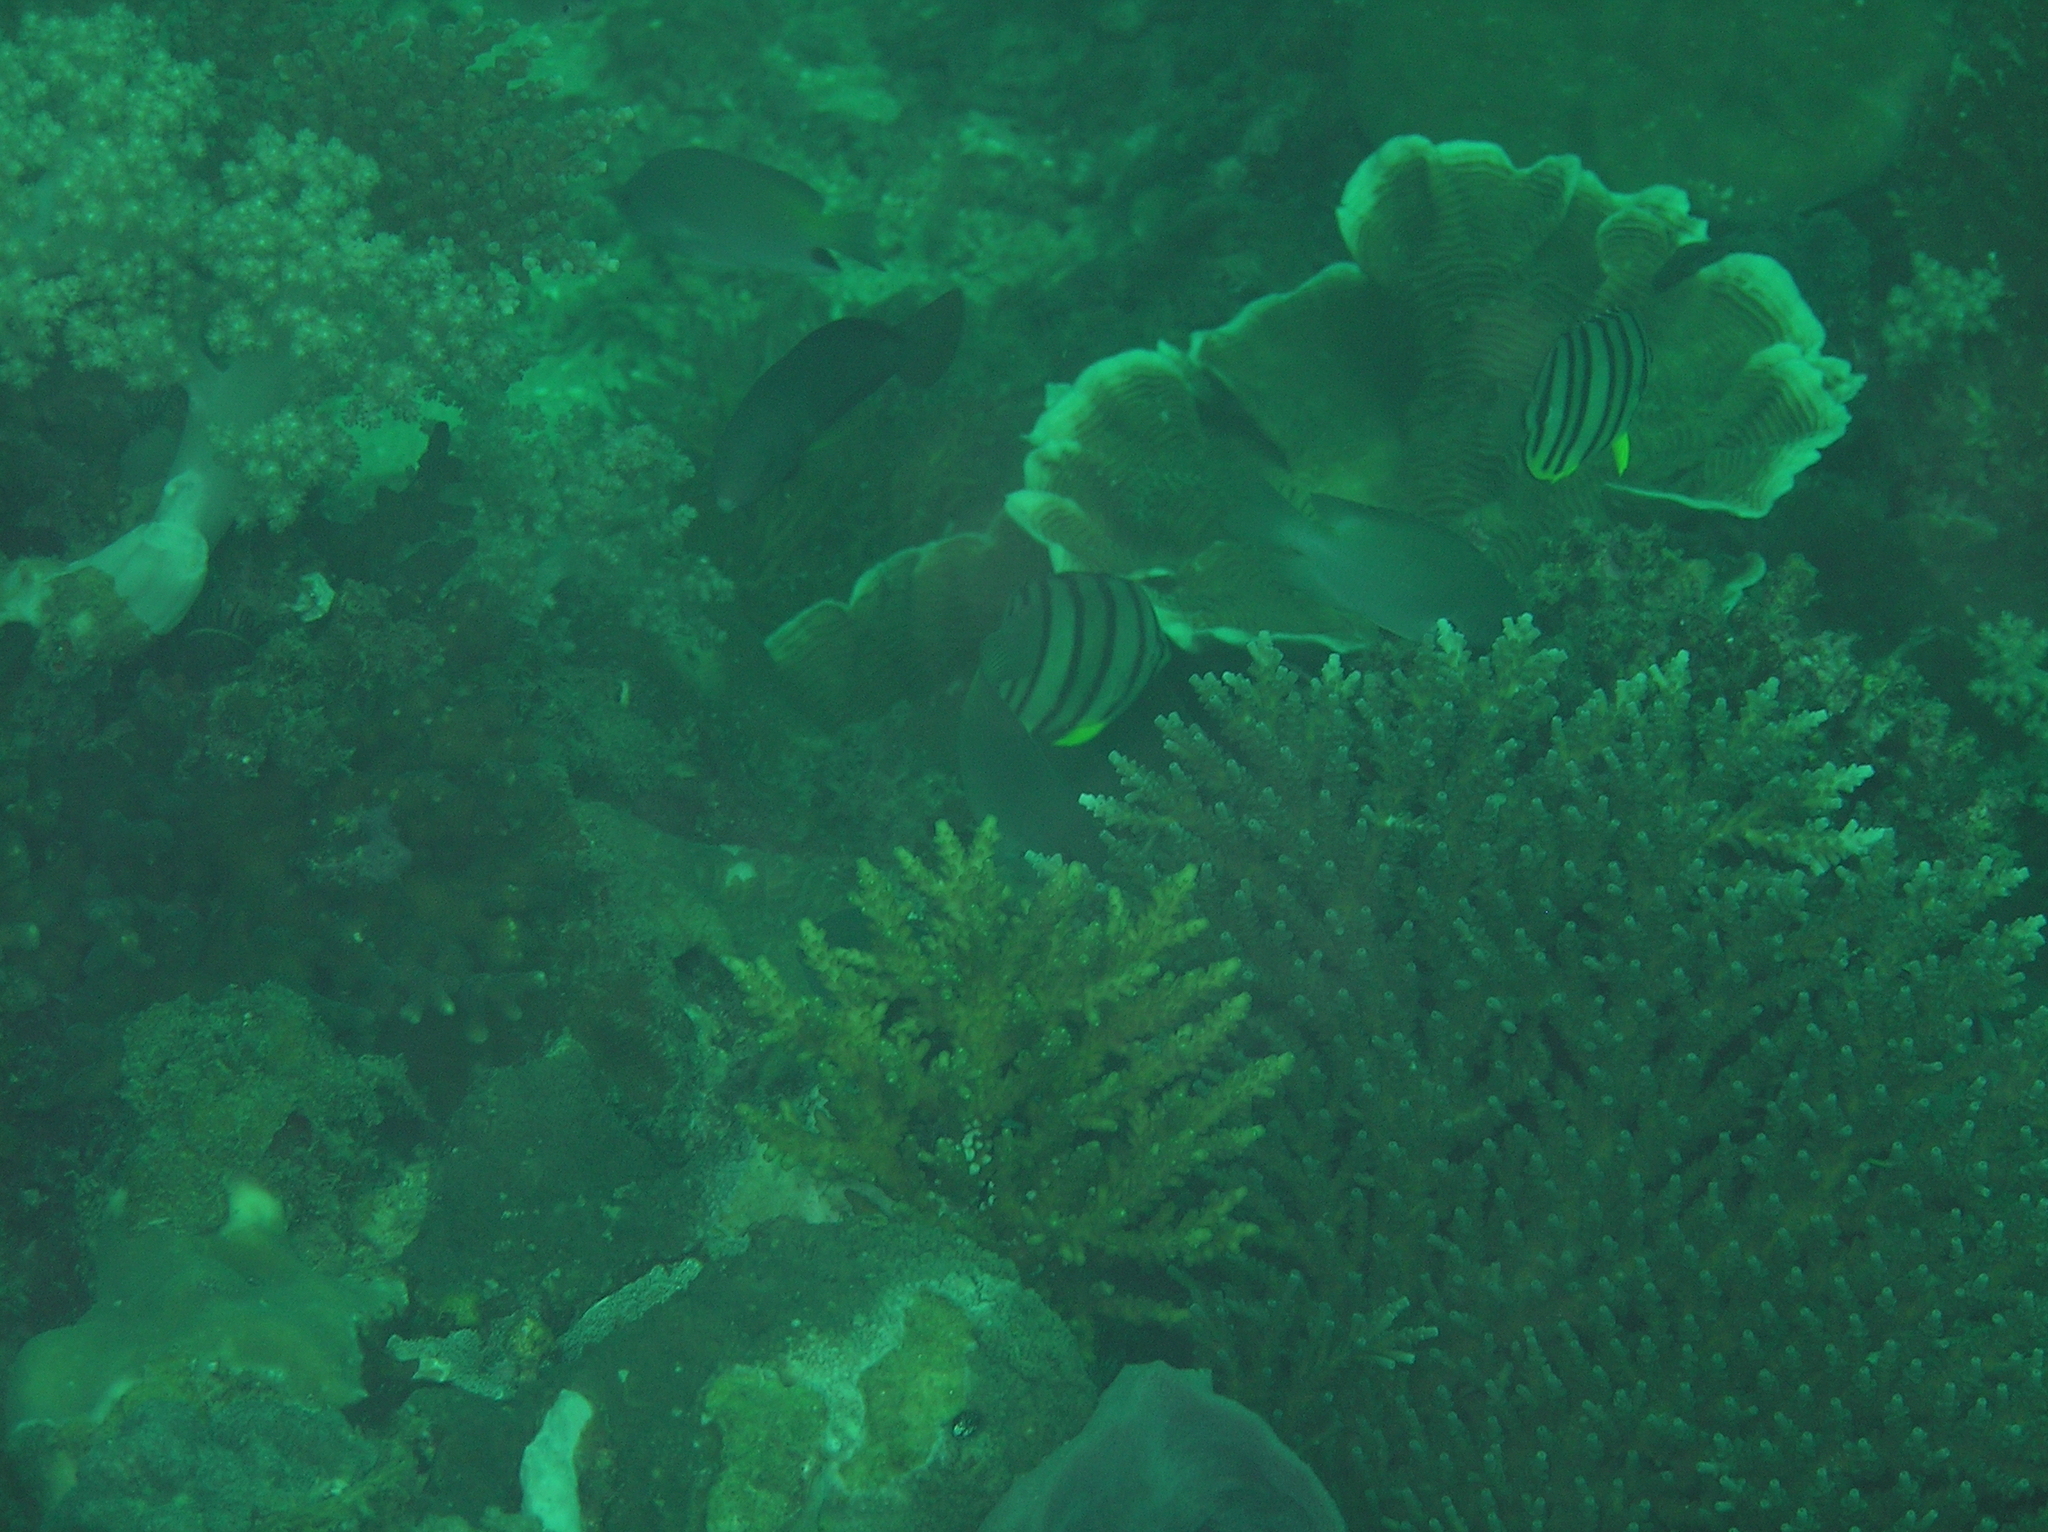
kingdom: Animalia
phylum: Chordata
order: Perciformes
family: Chaetodontidae
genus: Chaetodon
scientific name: Chaetodon octofasciatus
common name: Eightband butterflyfish
